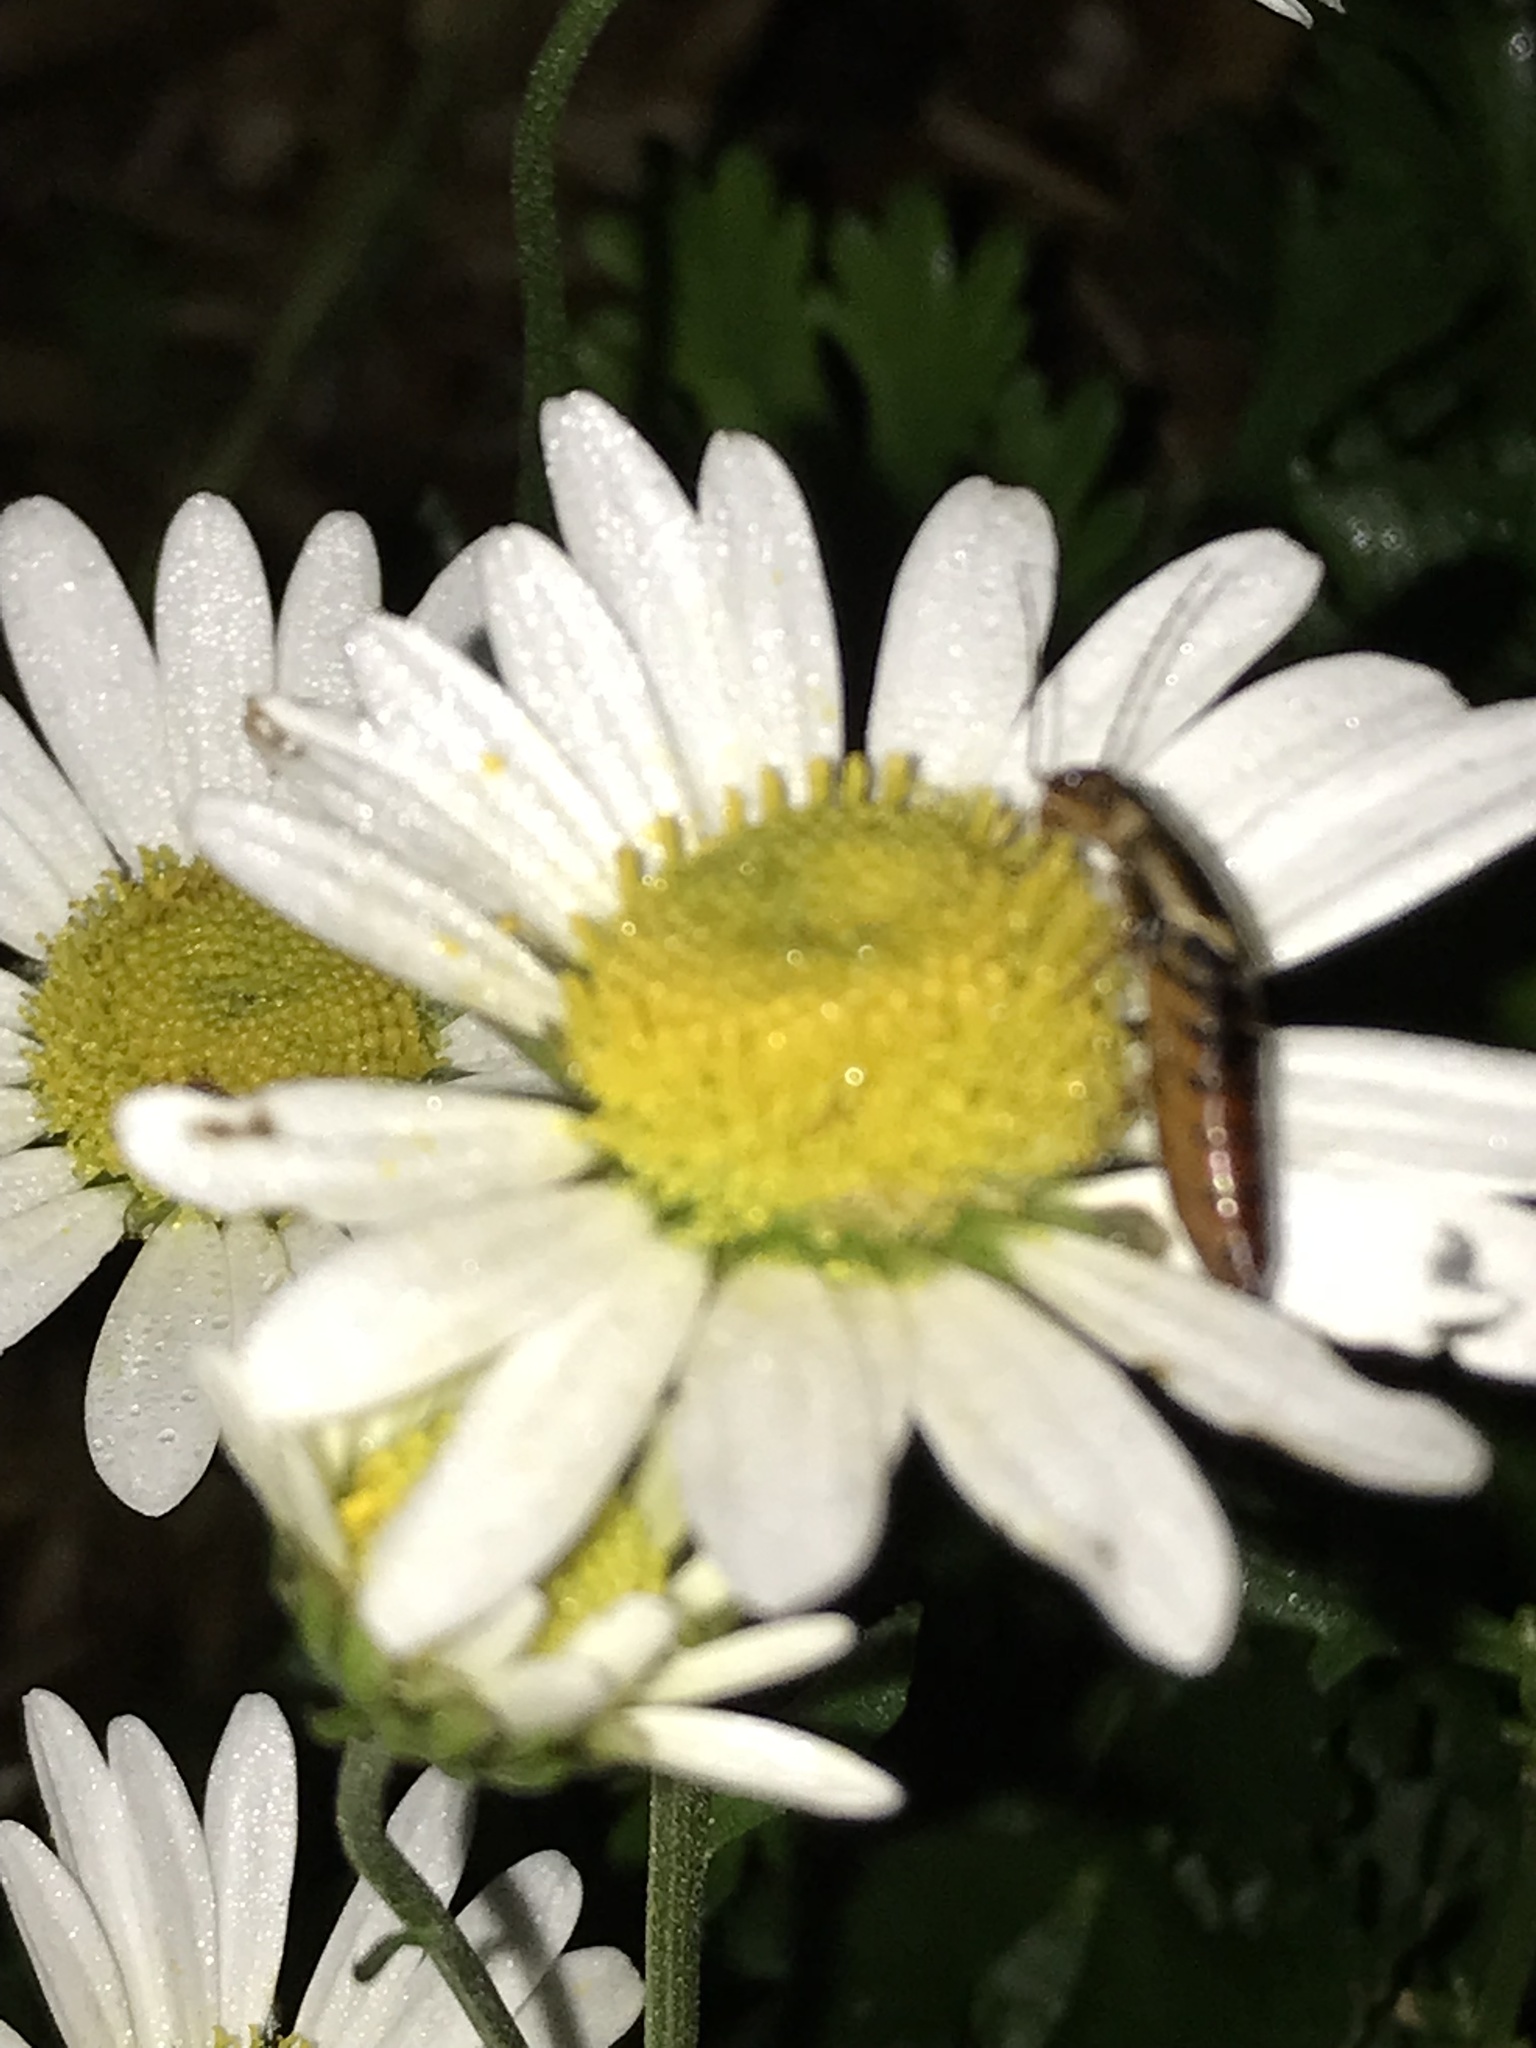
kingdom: Animalia
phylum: Arthropoda
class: Insecta
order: Dermaptera
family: Forficulidae
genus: Forficula
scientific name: Forficula
